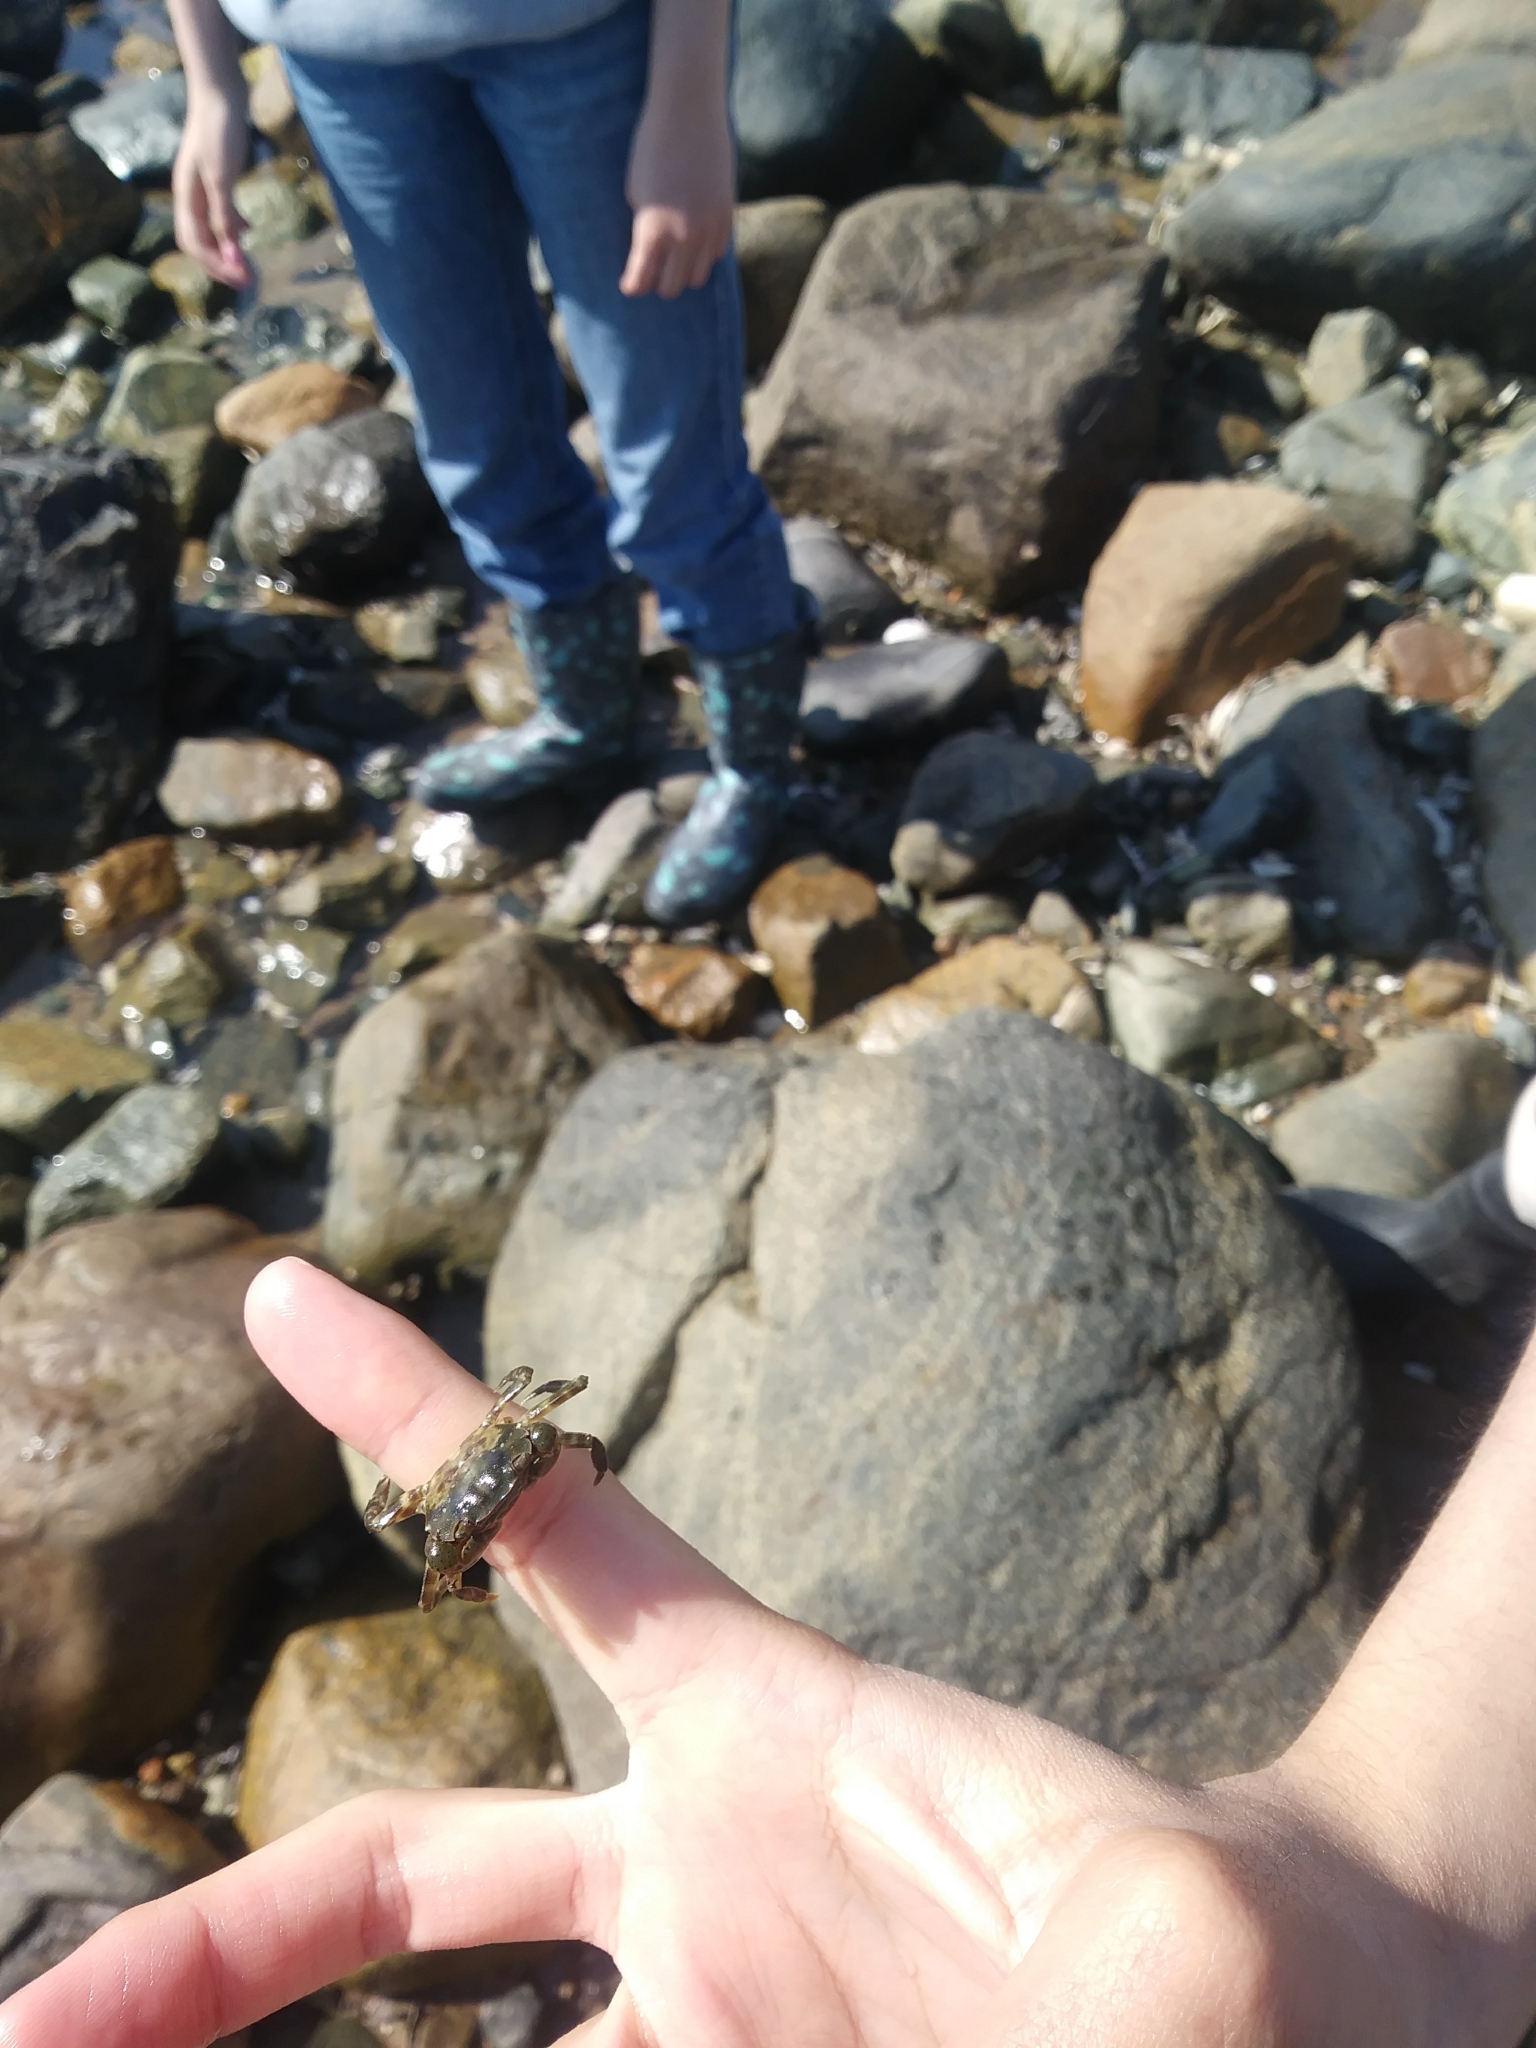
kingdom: Animalia
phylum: Arthropoda
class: Malacostraca
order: Decapoda
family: Varunidae
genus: Hemigrapsus
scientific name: Hemigrapsus sanguineus
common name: Asian shore crab
